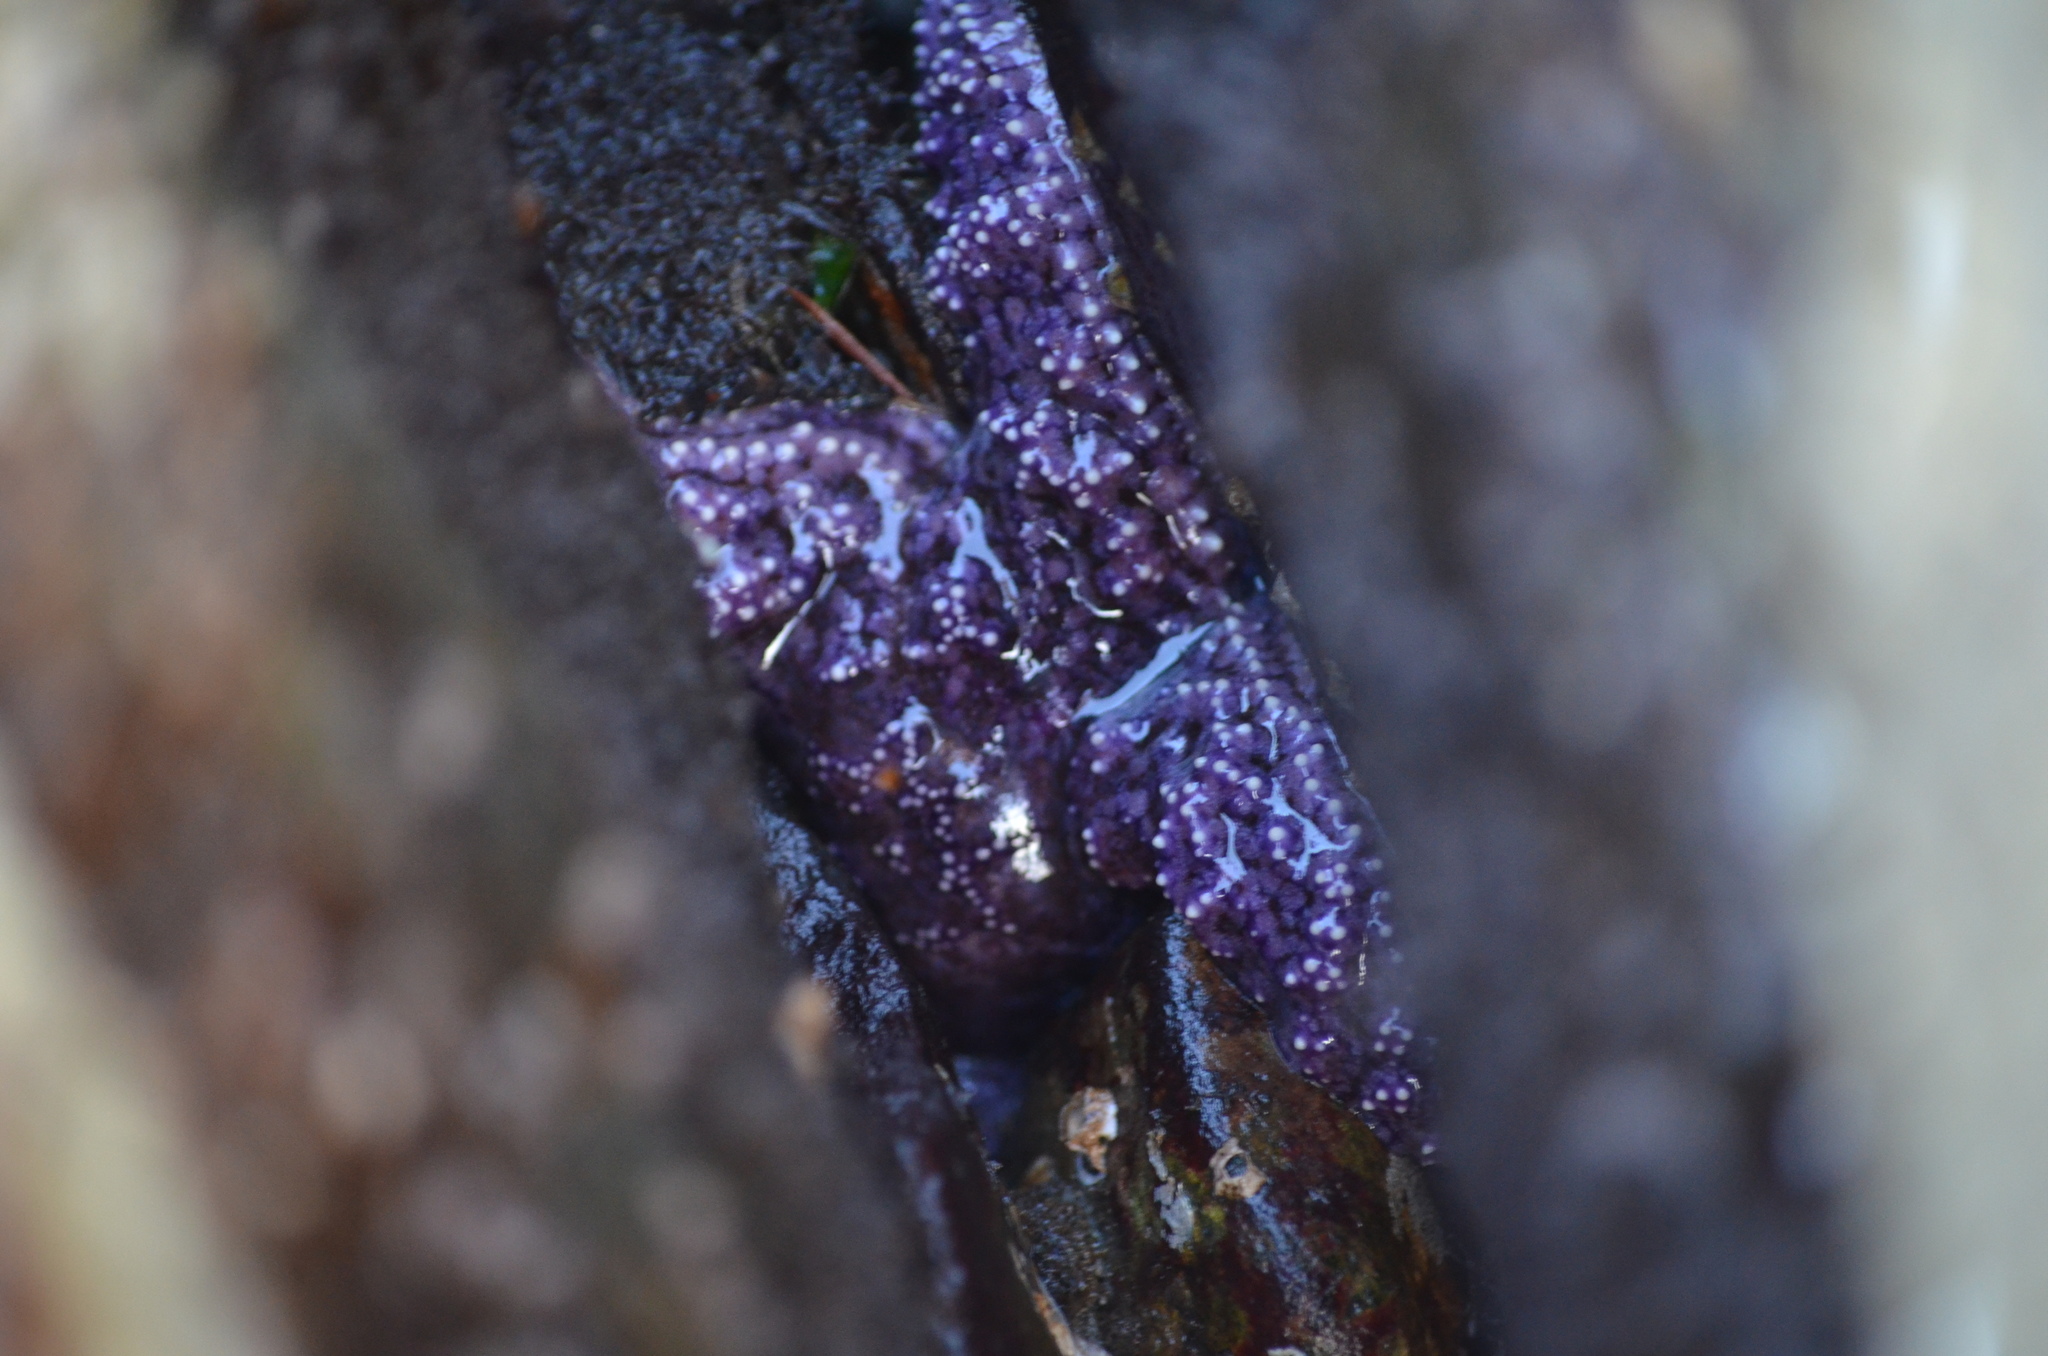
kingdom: Animalia
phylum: Echinodermata
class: Asteroidea
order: Forcipulatida
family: Asteriidae
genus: Pisaster
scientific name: Pisaster ochraceus
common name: Ochre stars
